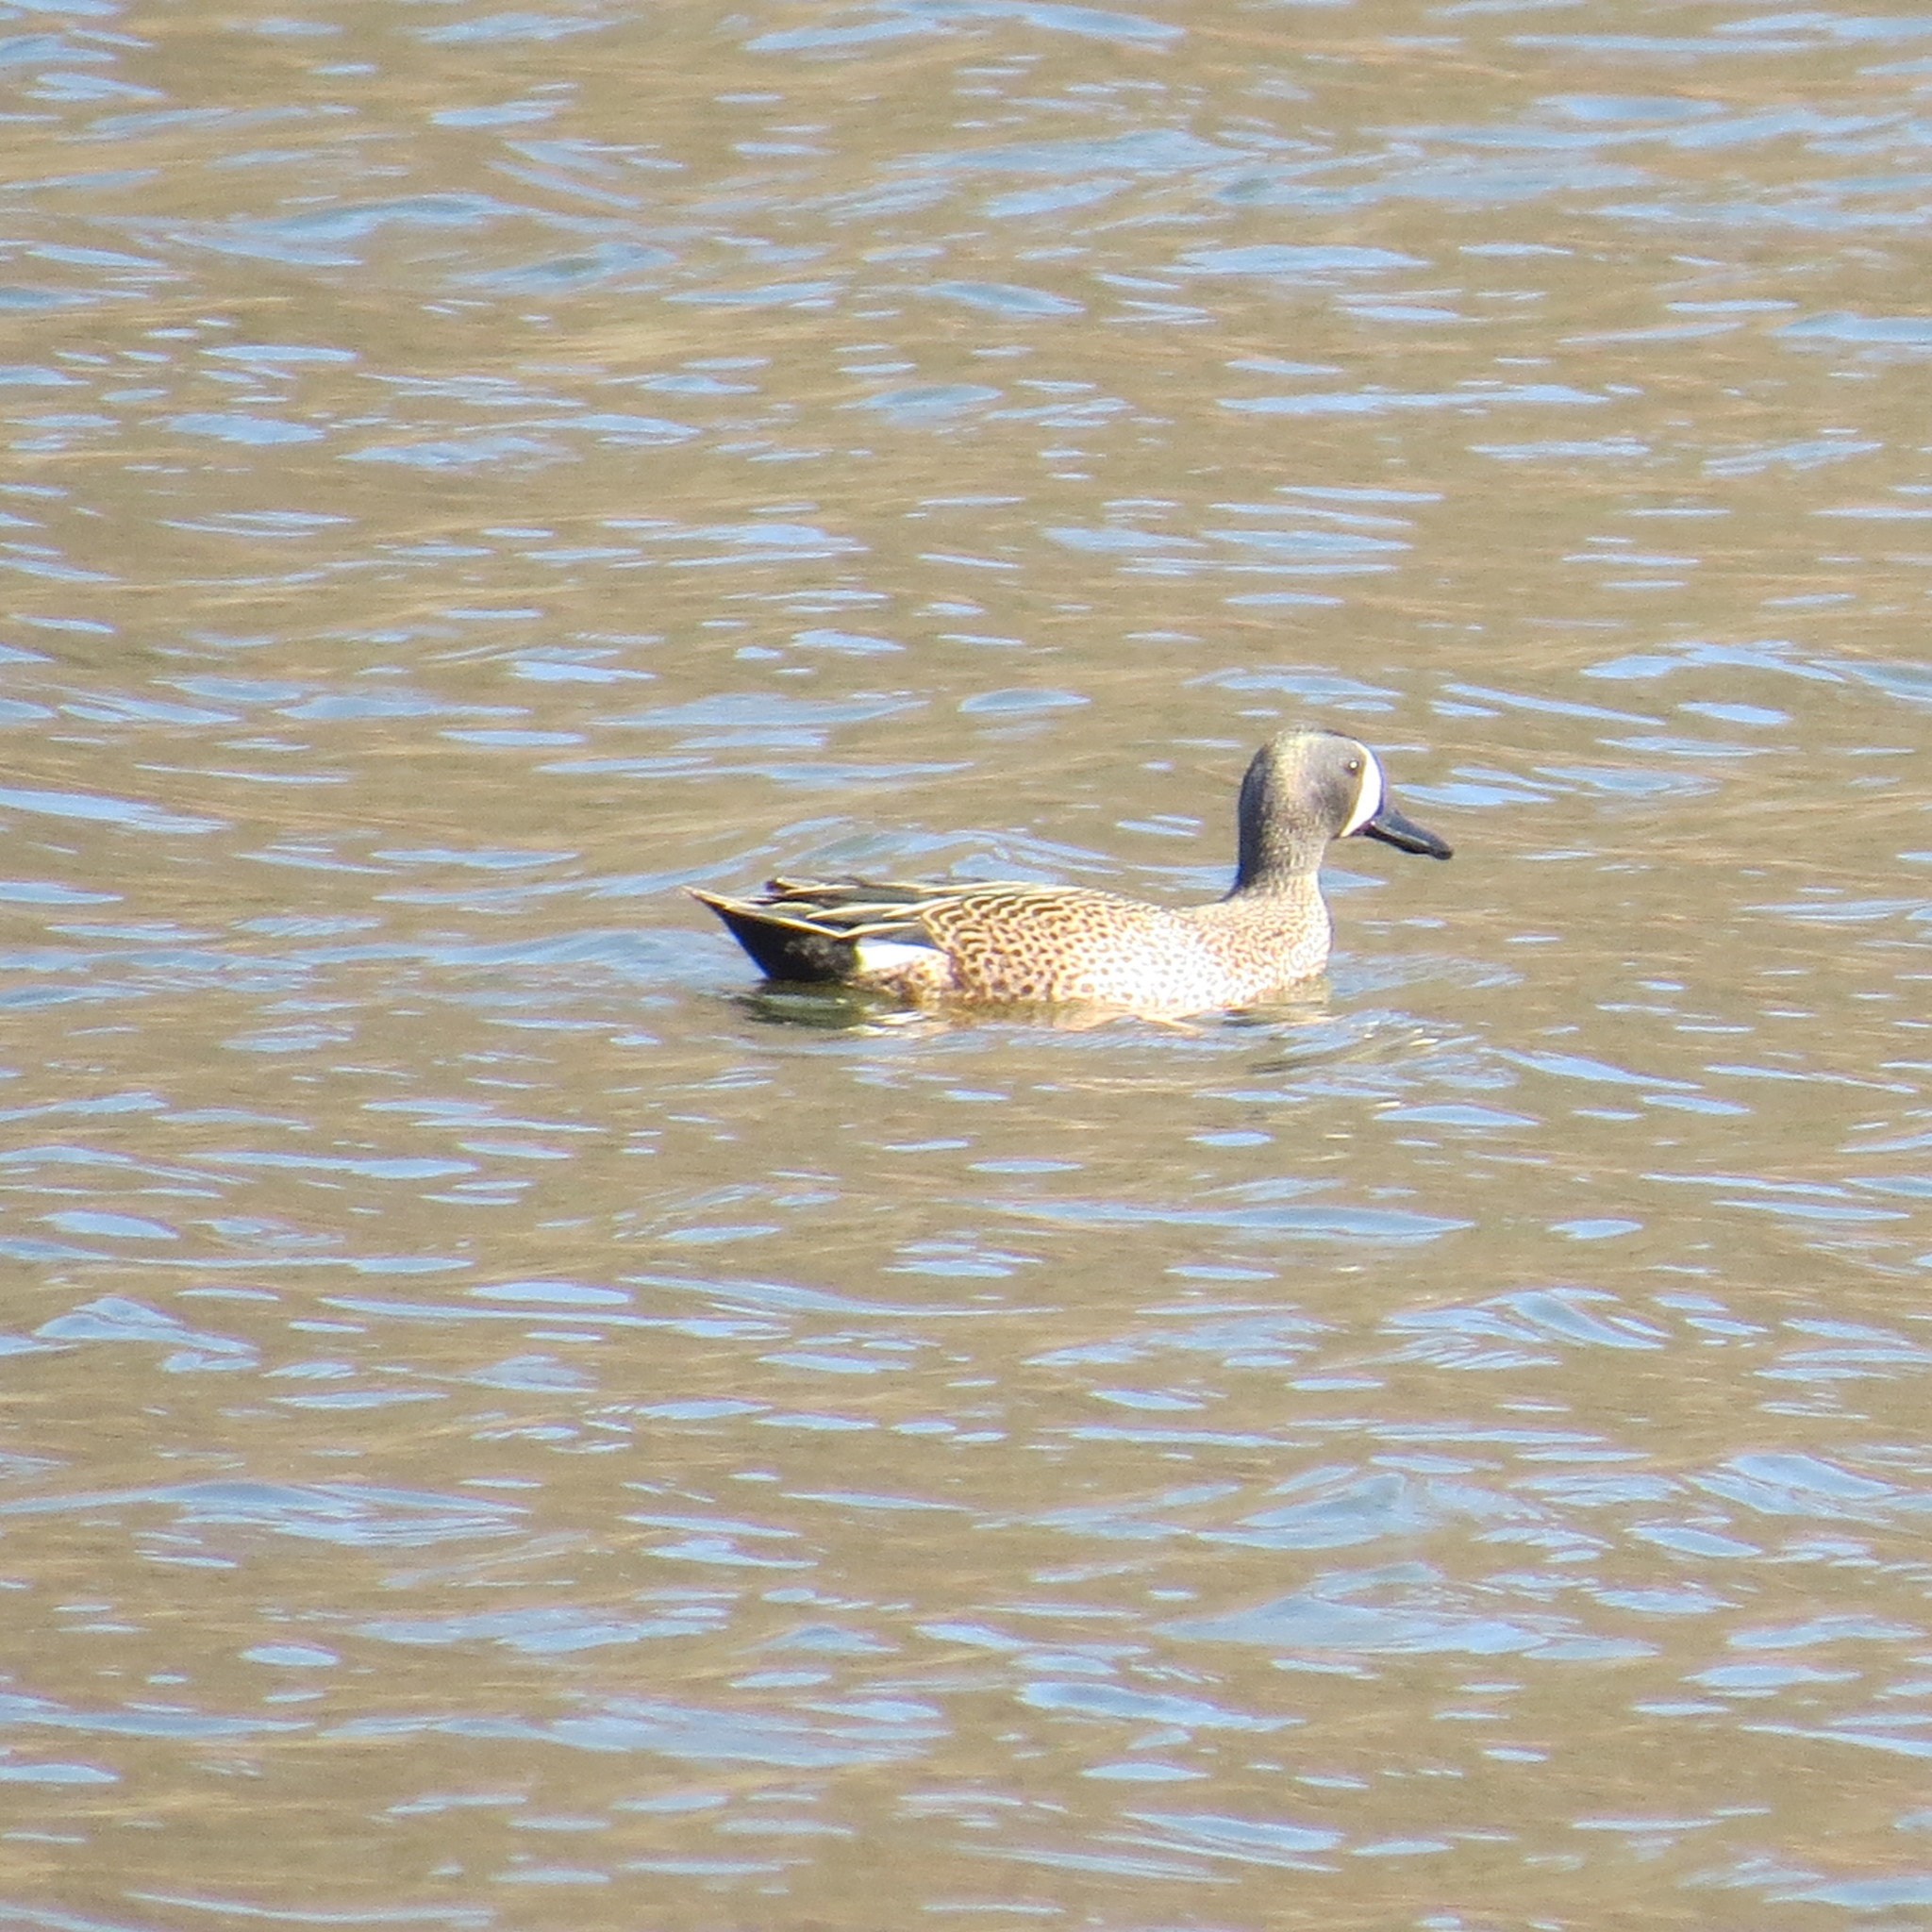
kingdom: Animalia
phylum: Chordata
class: Aves
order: Anseriformes
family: Anatidae
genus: Spatula
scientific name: Spatula discors
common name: Blue-winged teal
